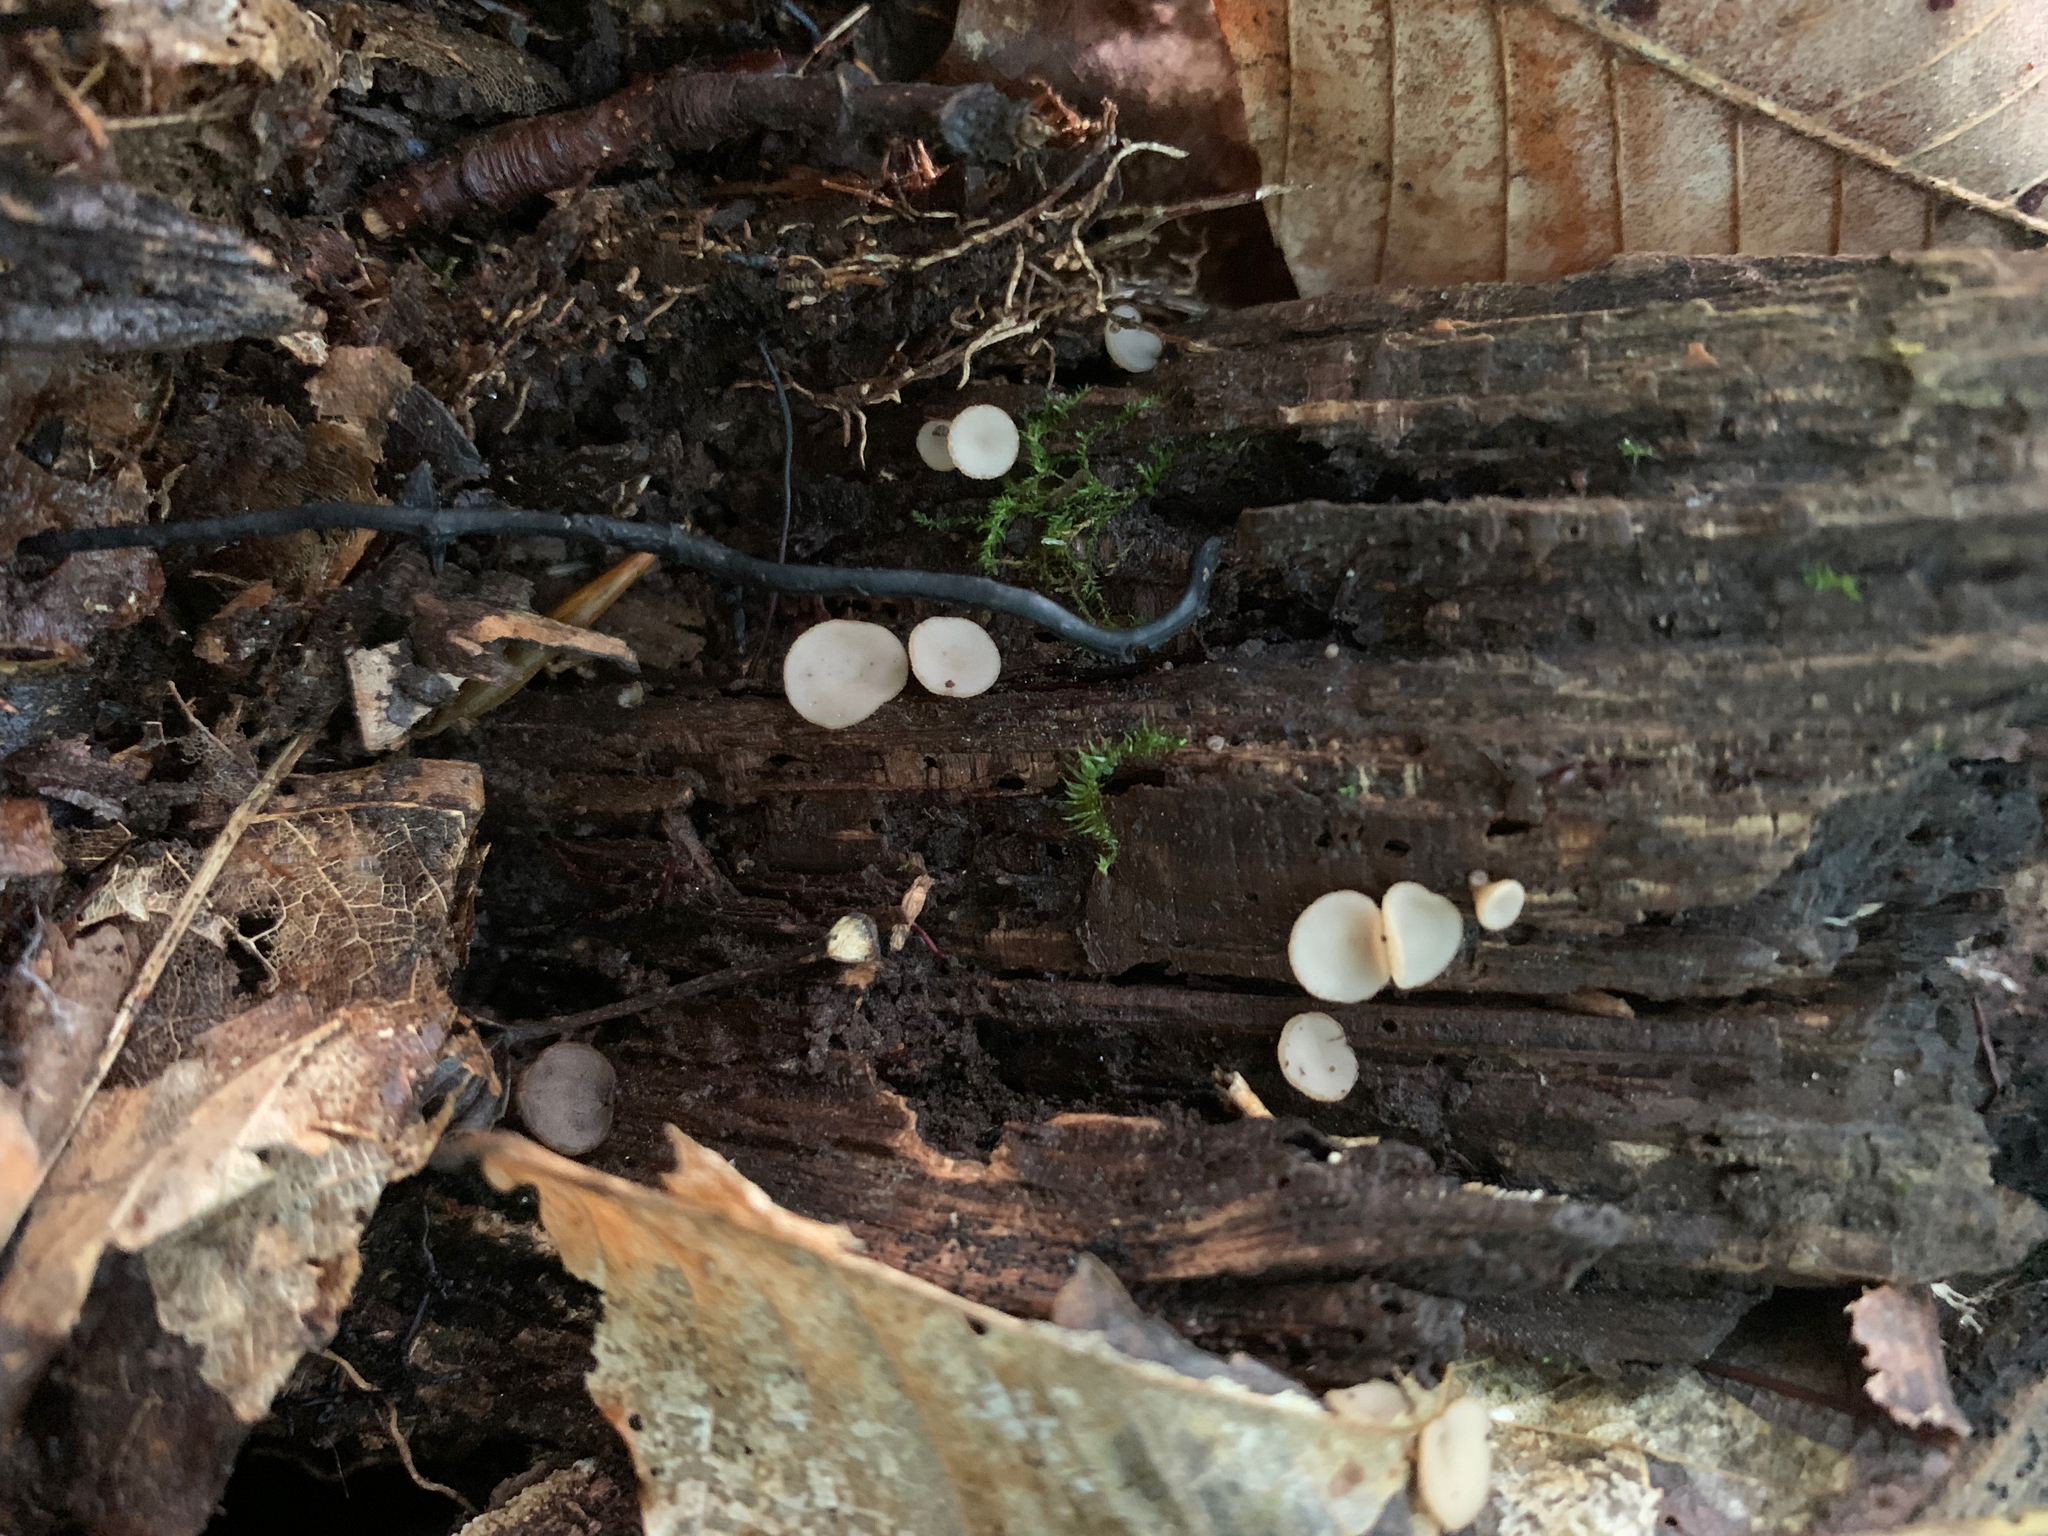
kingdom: Fungi
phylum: Ascomycota
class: Leotiomycetes
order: Helotiales
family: Helotiaceae
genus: Tatraea
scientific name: Tatraea macrospora
